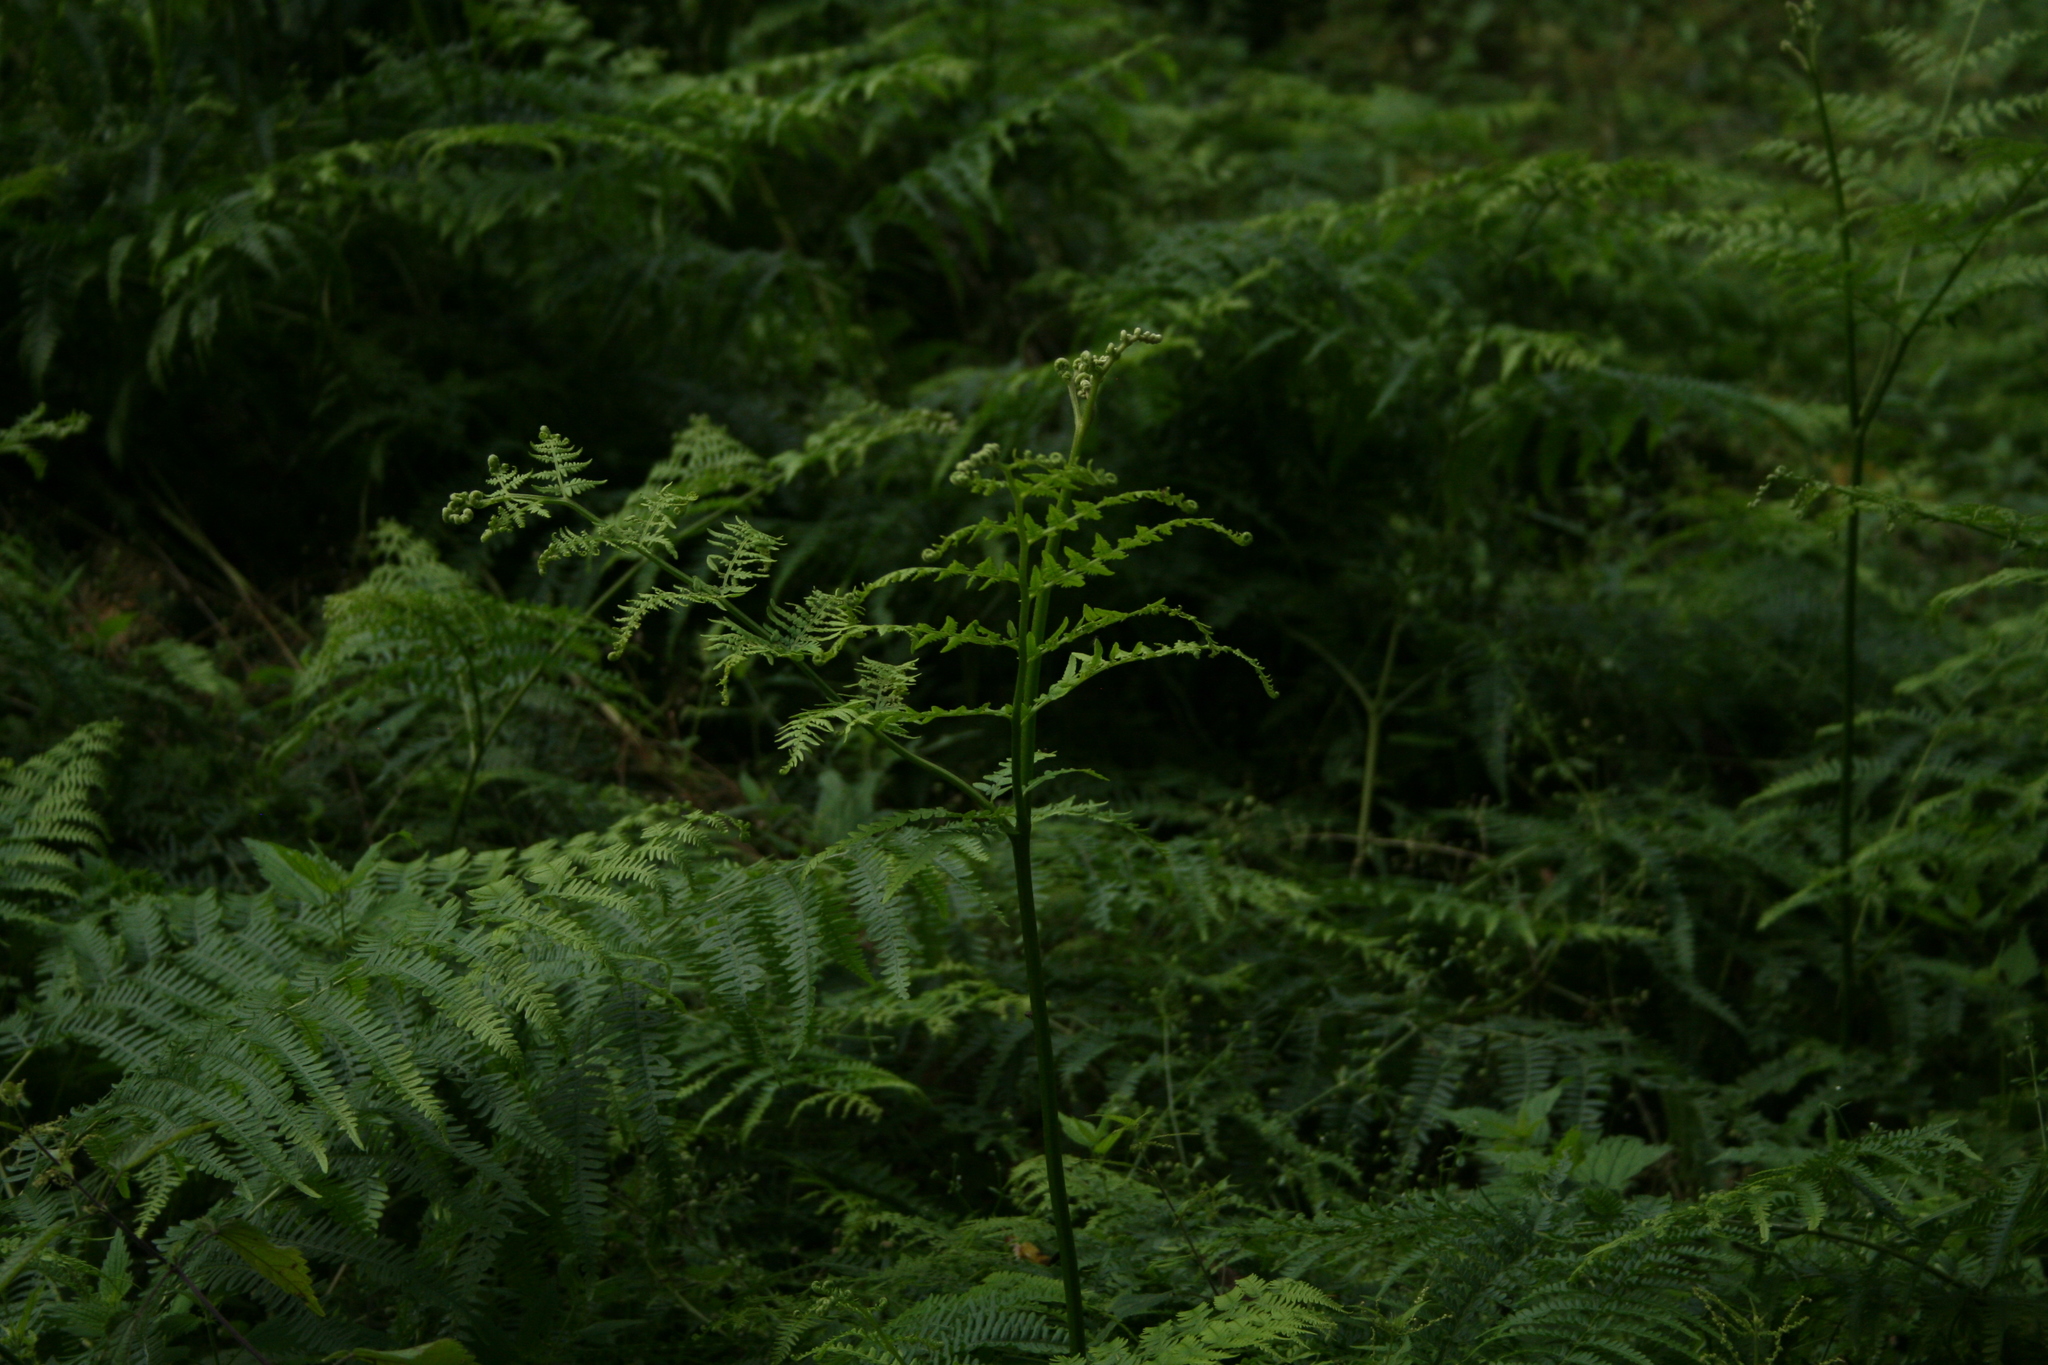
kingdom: Plantae
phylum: Tracheophyta
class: Polypodiopsida
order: Polypodiales
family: Dennstaedtiaceae
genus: Pteridium
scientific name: Pteridium aquilinum
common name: Bracken
